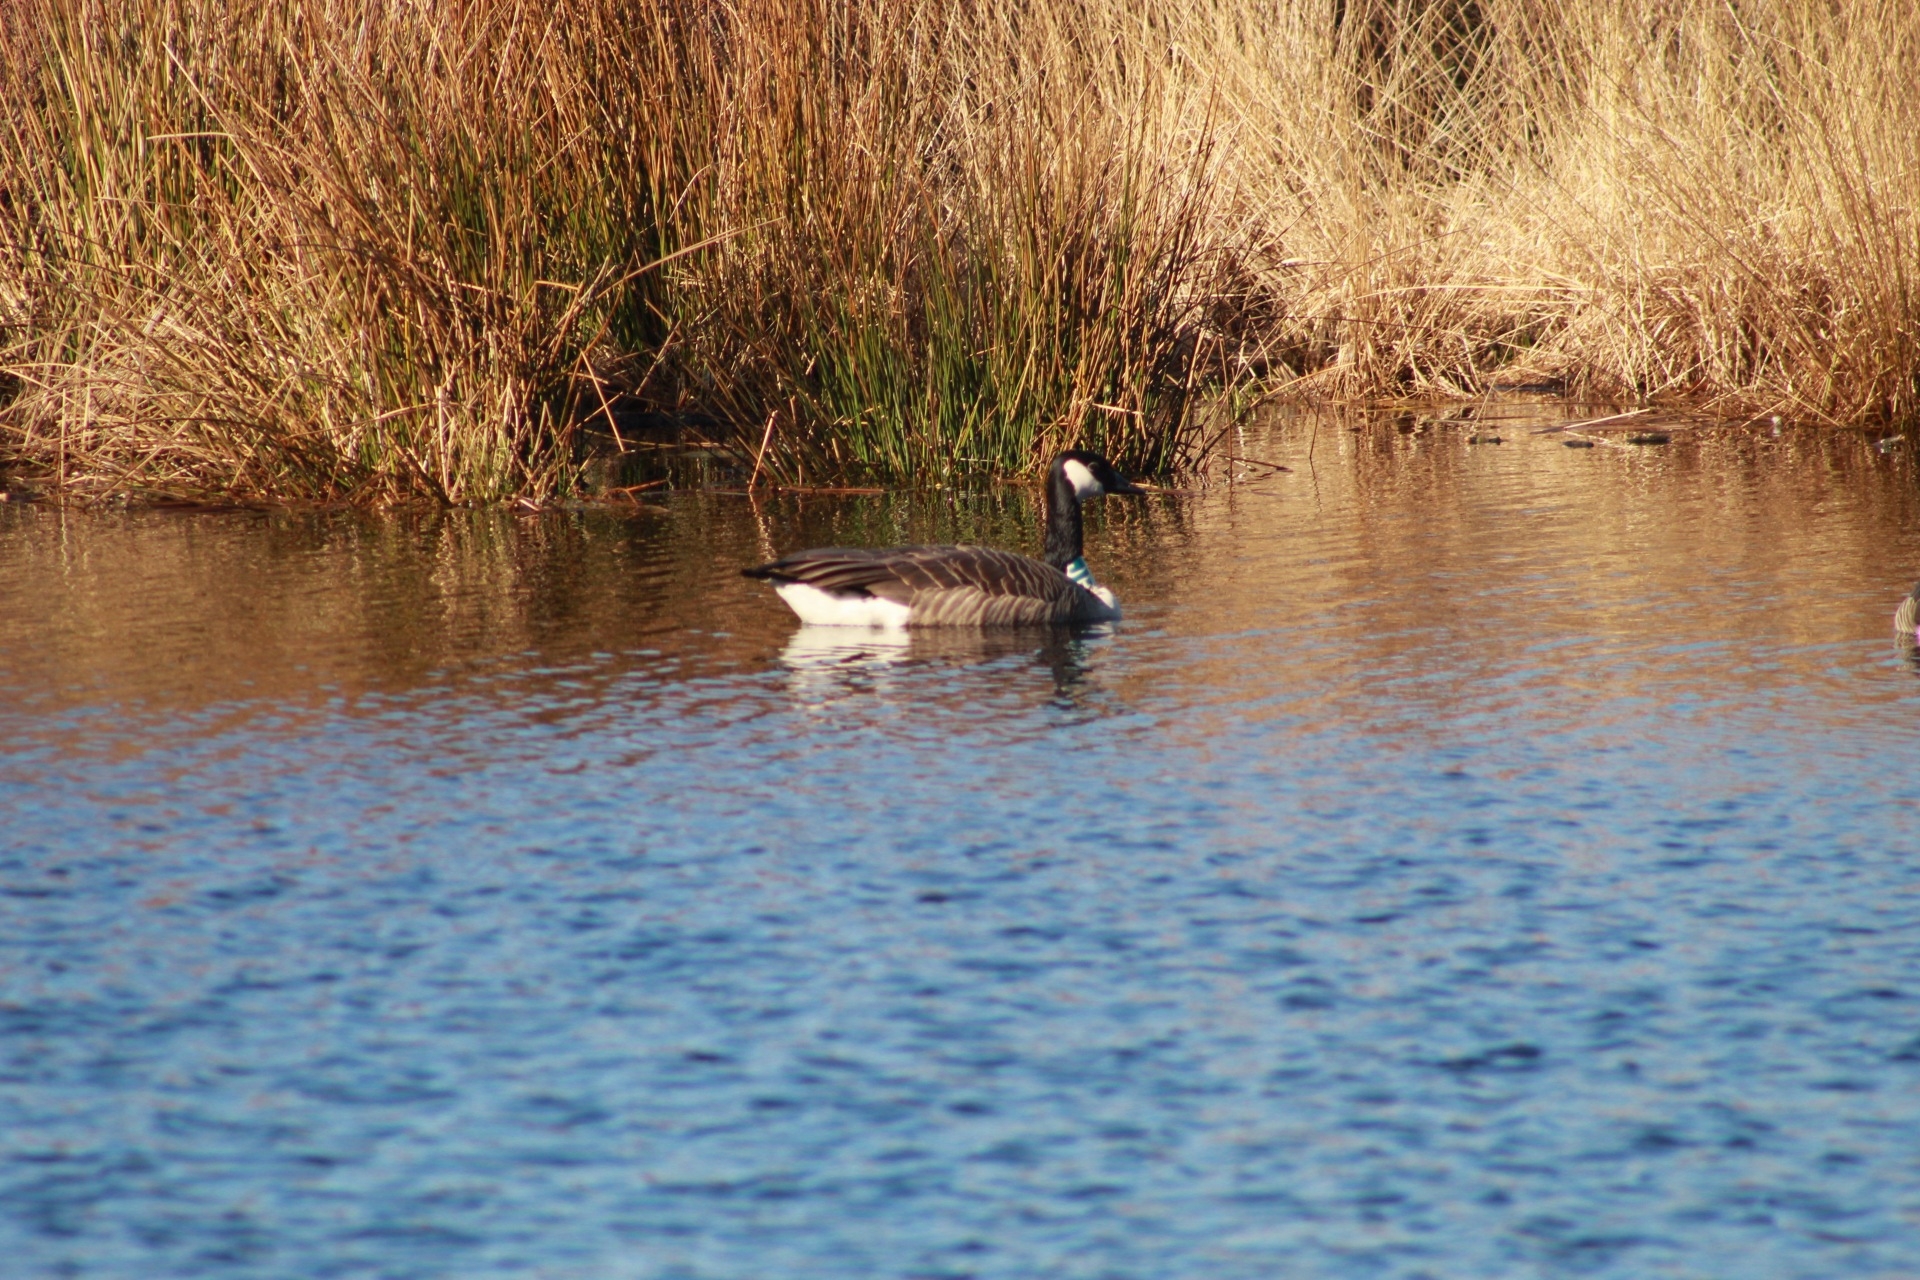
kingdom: Animalia
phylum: Chordata
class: Aves
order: Anseriformes
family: Anatidae
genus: Branta
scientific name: Branta canadensis
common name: Canada goose
